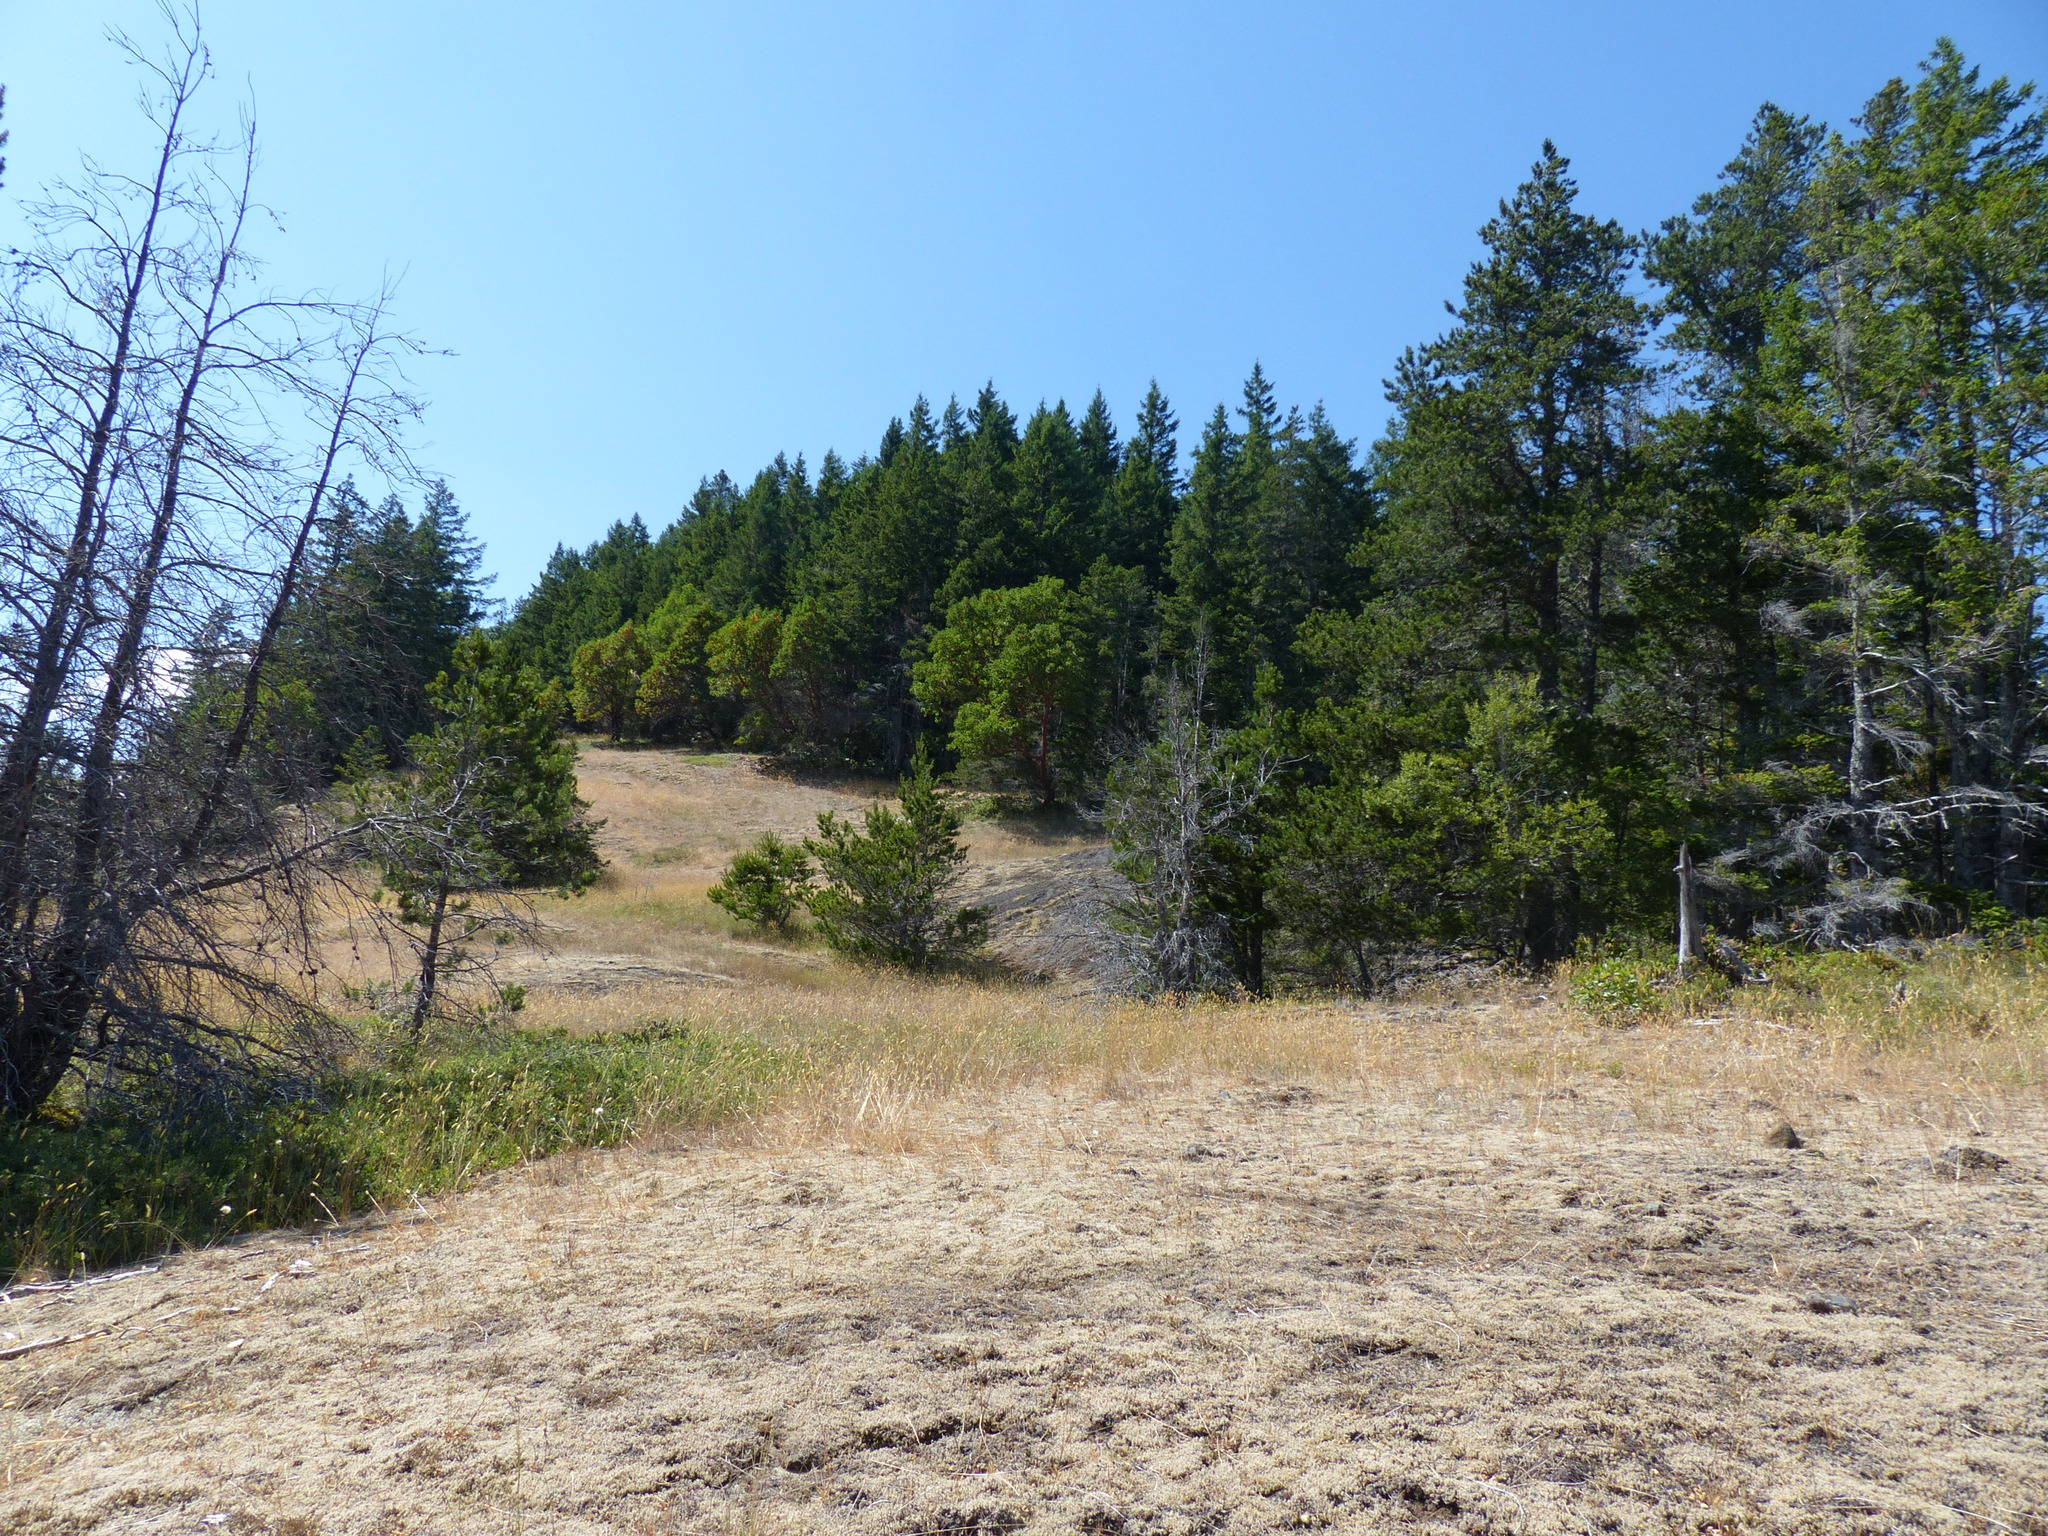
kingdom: Plantae
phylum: Tracheophyta
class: Pinopsida
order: Pinales
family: Pinaceae
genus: Pinus
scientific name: Pinus contorta
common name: Lodgepole pine
